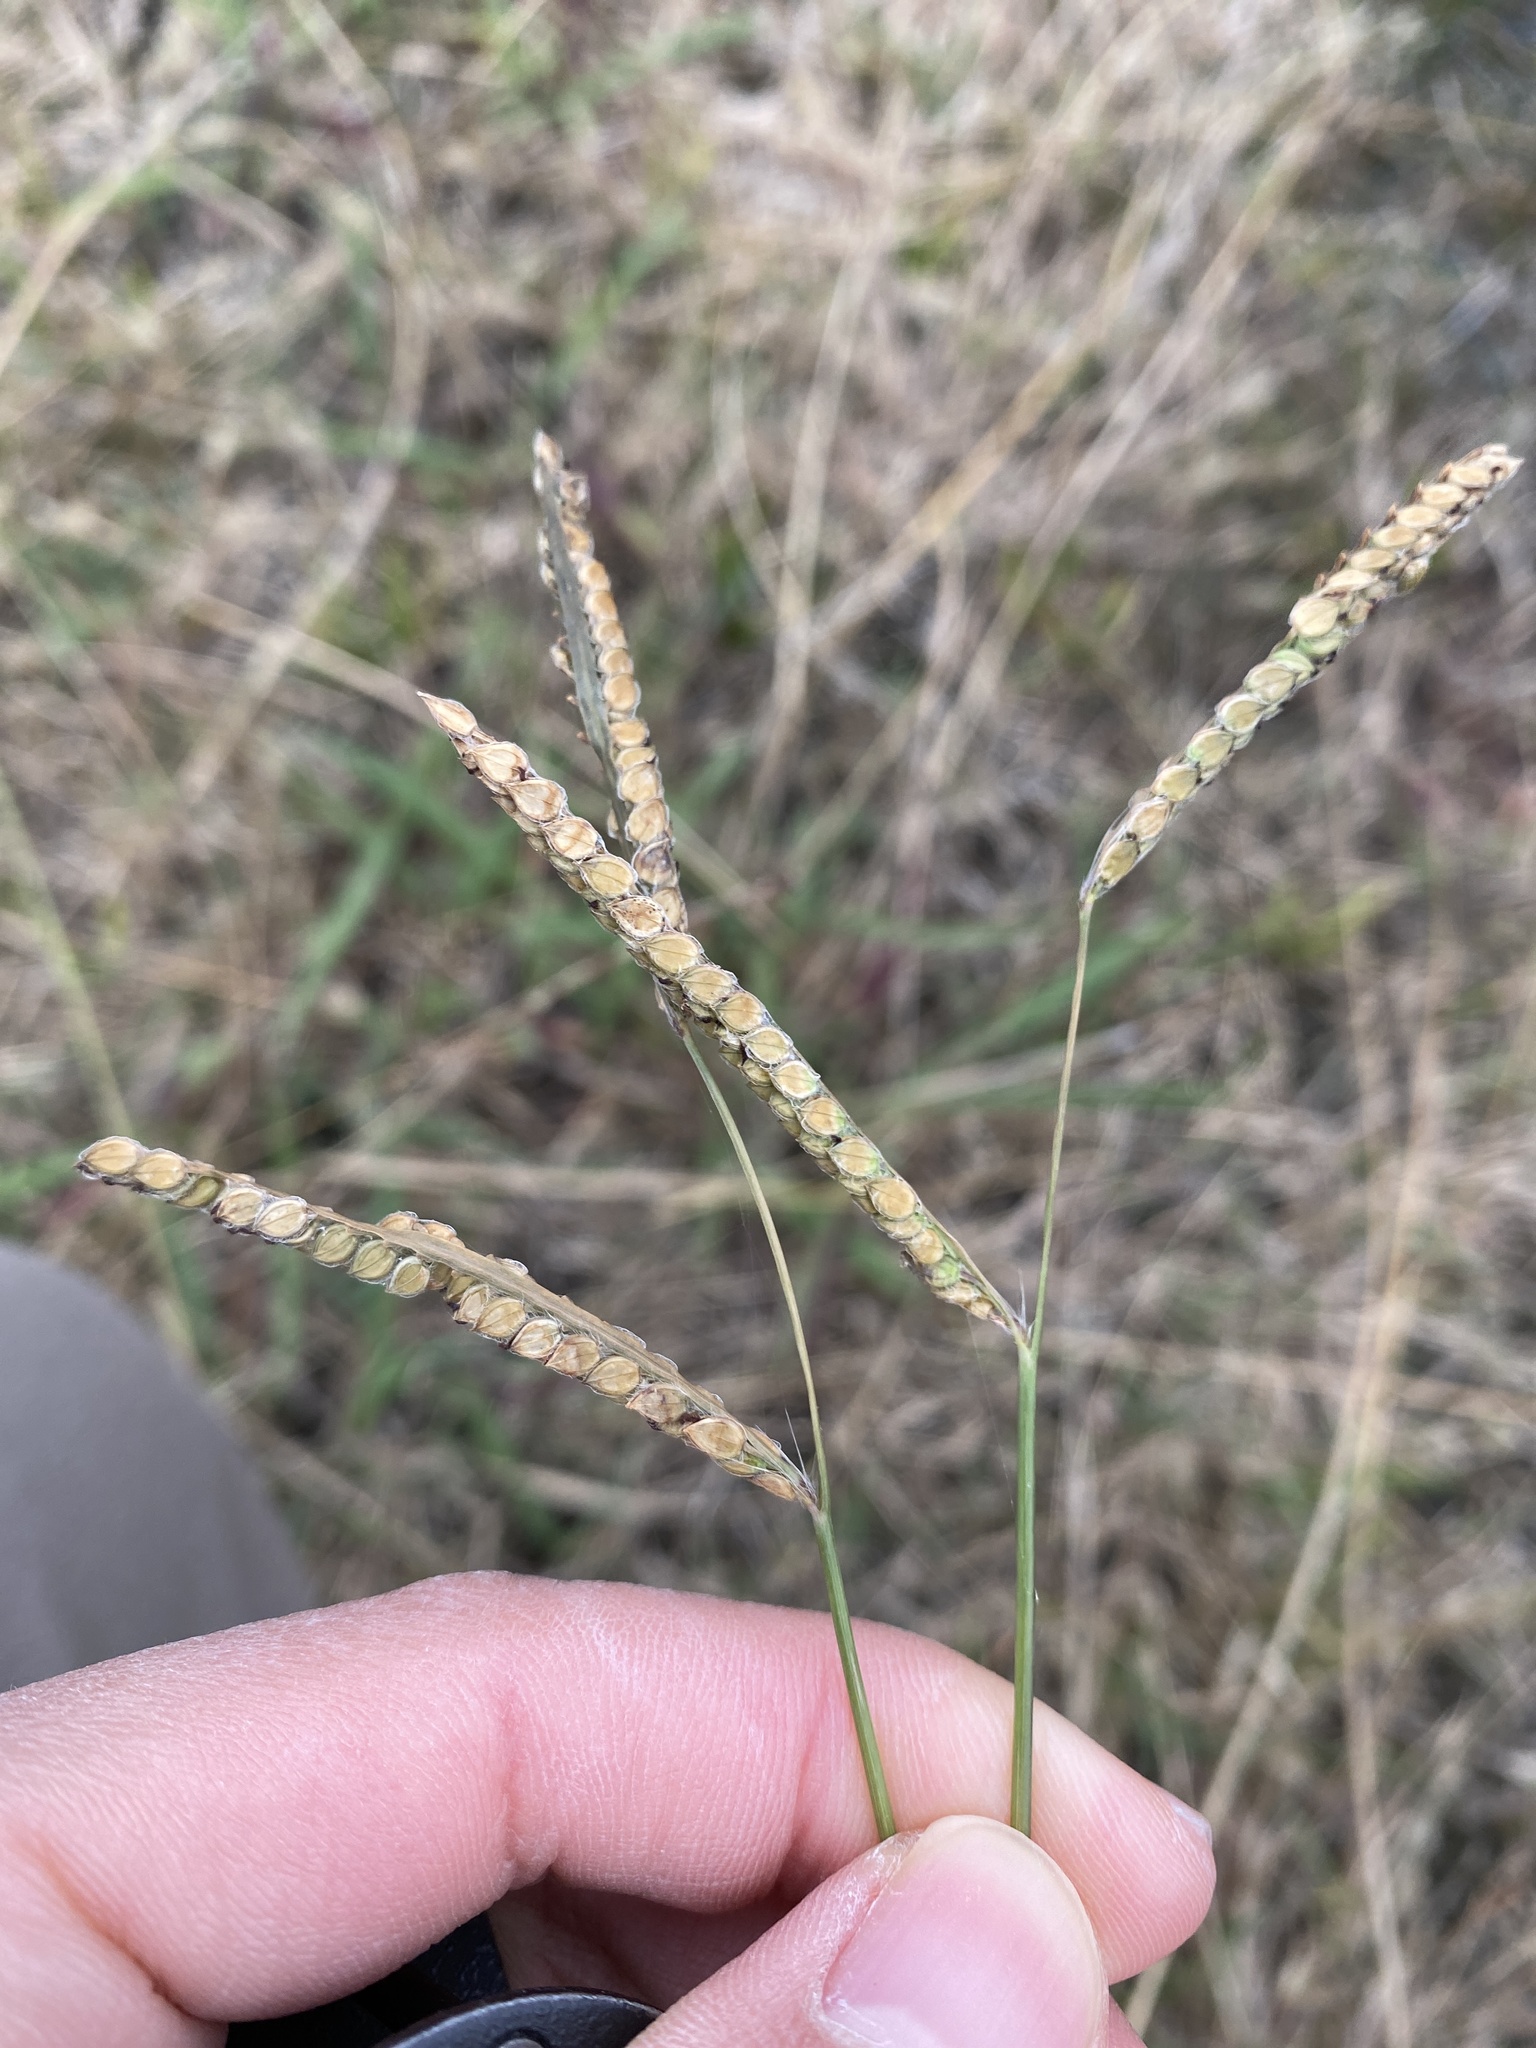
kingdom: Plantae
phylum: Tracheophyta
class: Liliopsida
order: Poales
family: Poaceae
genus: Paspalum
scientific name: Paspalum dilatatum
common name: Dallisgrass
